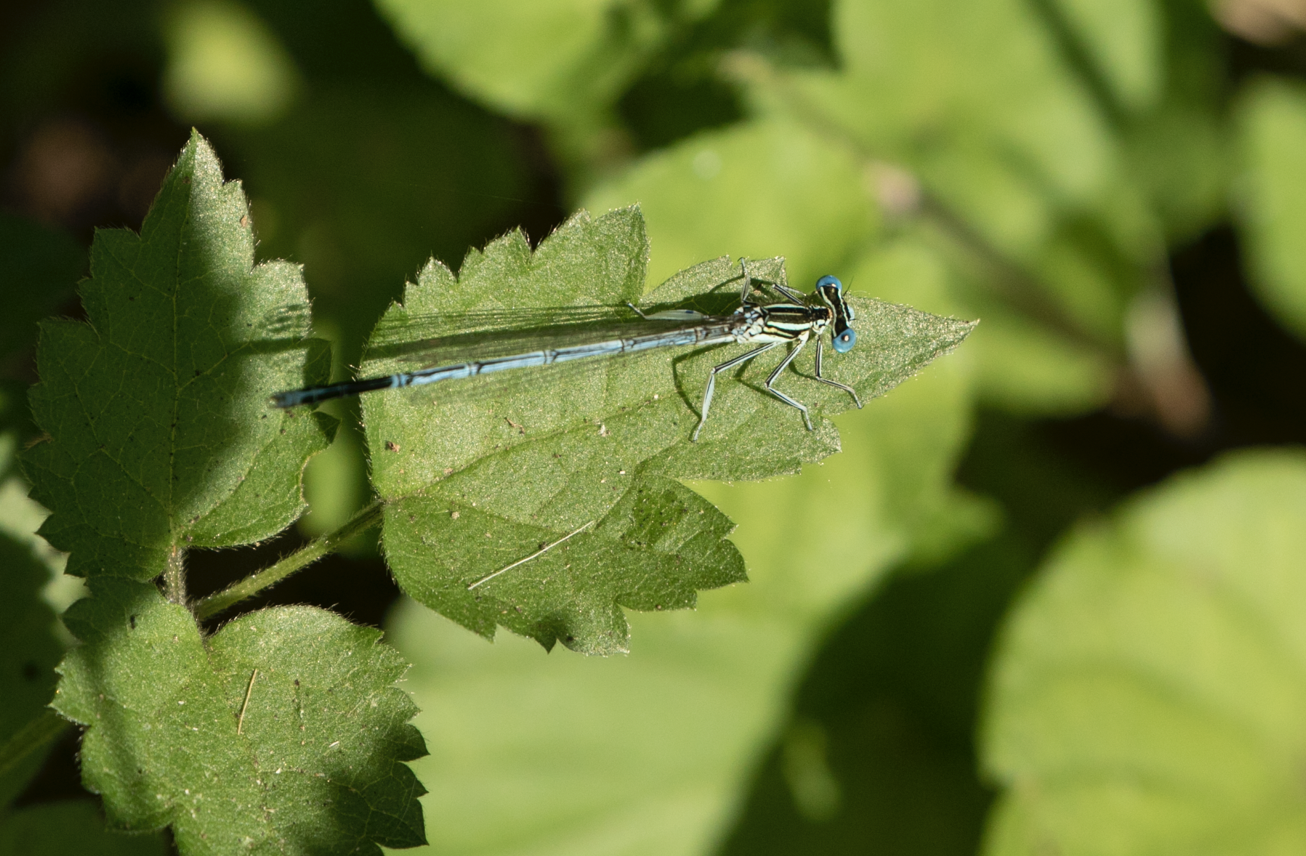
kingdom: Animalia
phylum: Arthropoda
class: Insecta
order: Odonata
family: Platycnemididae
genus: Platycnemis
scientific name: Platycnemis pennipes
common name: White-legged damselfly
